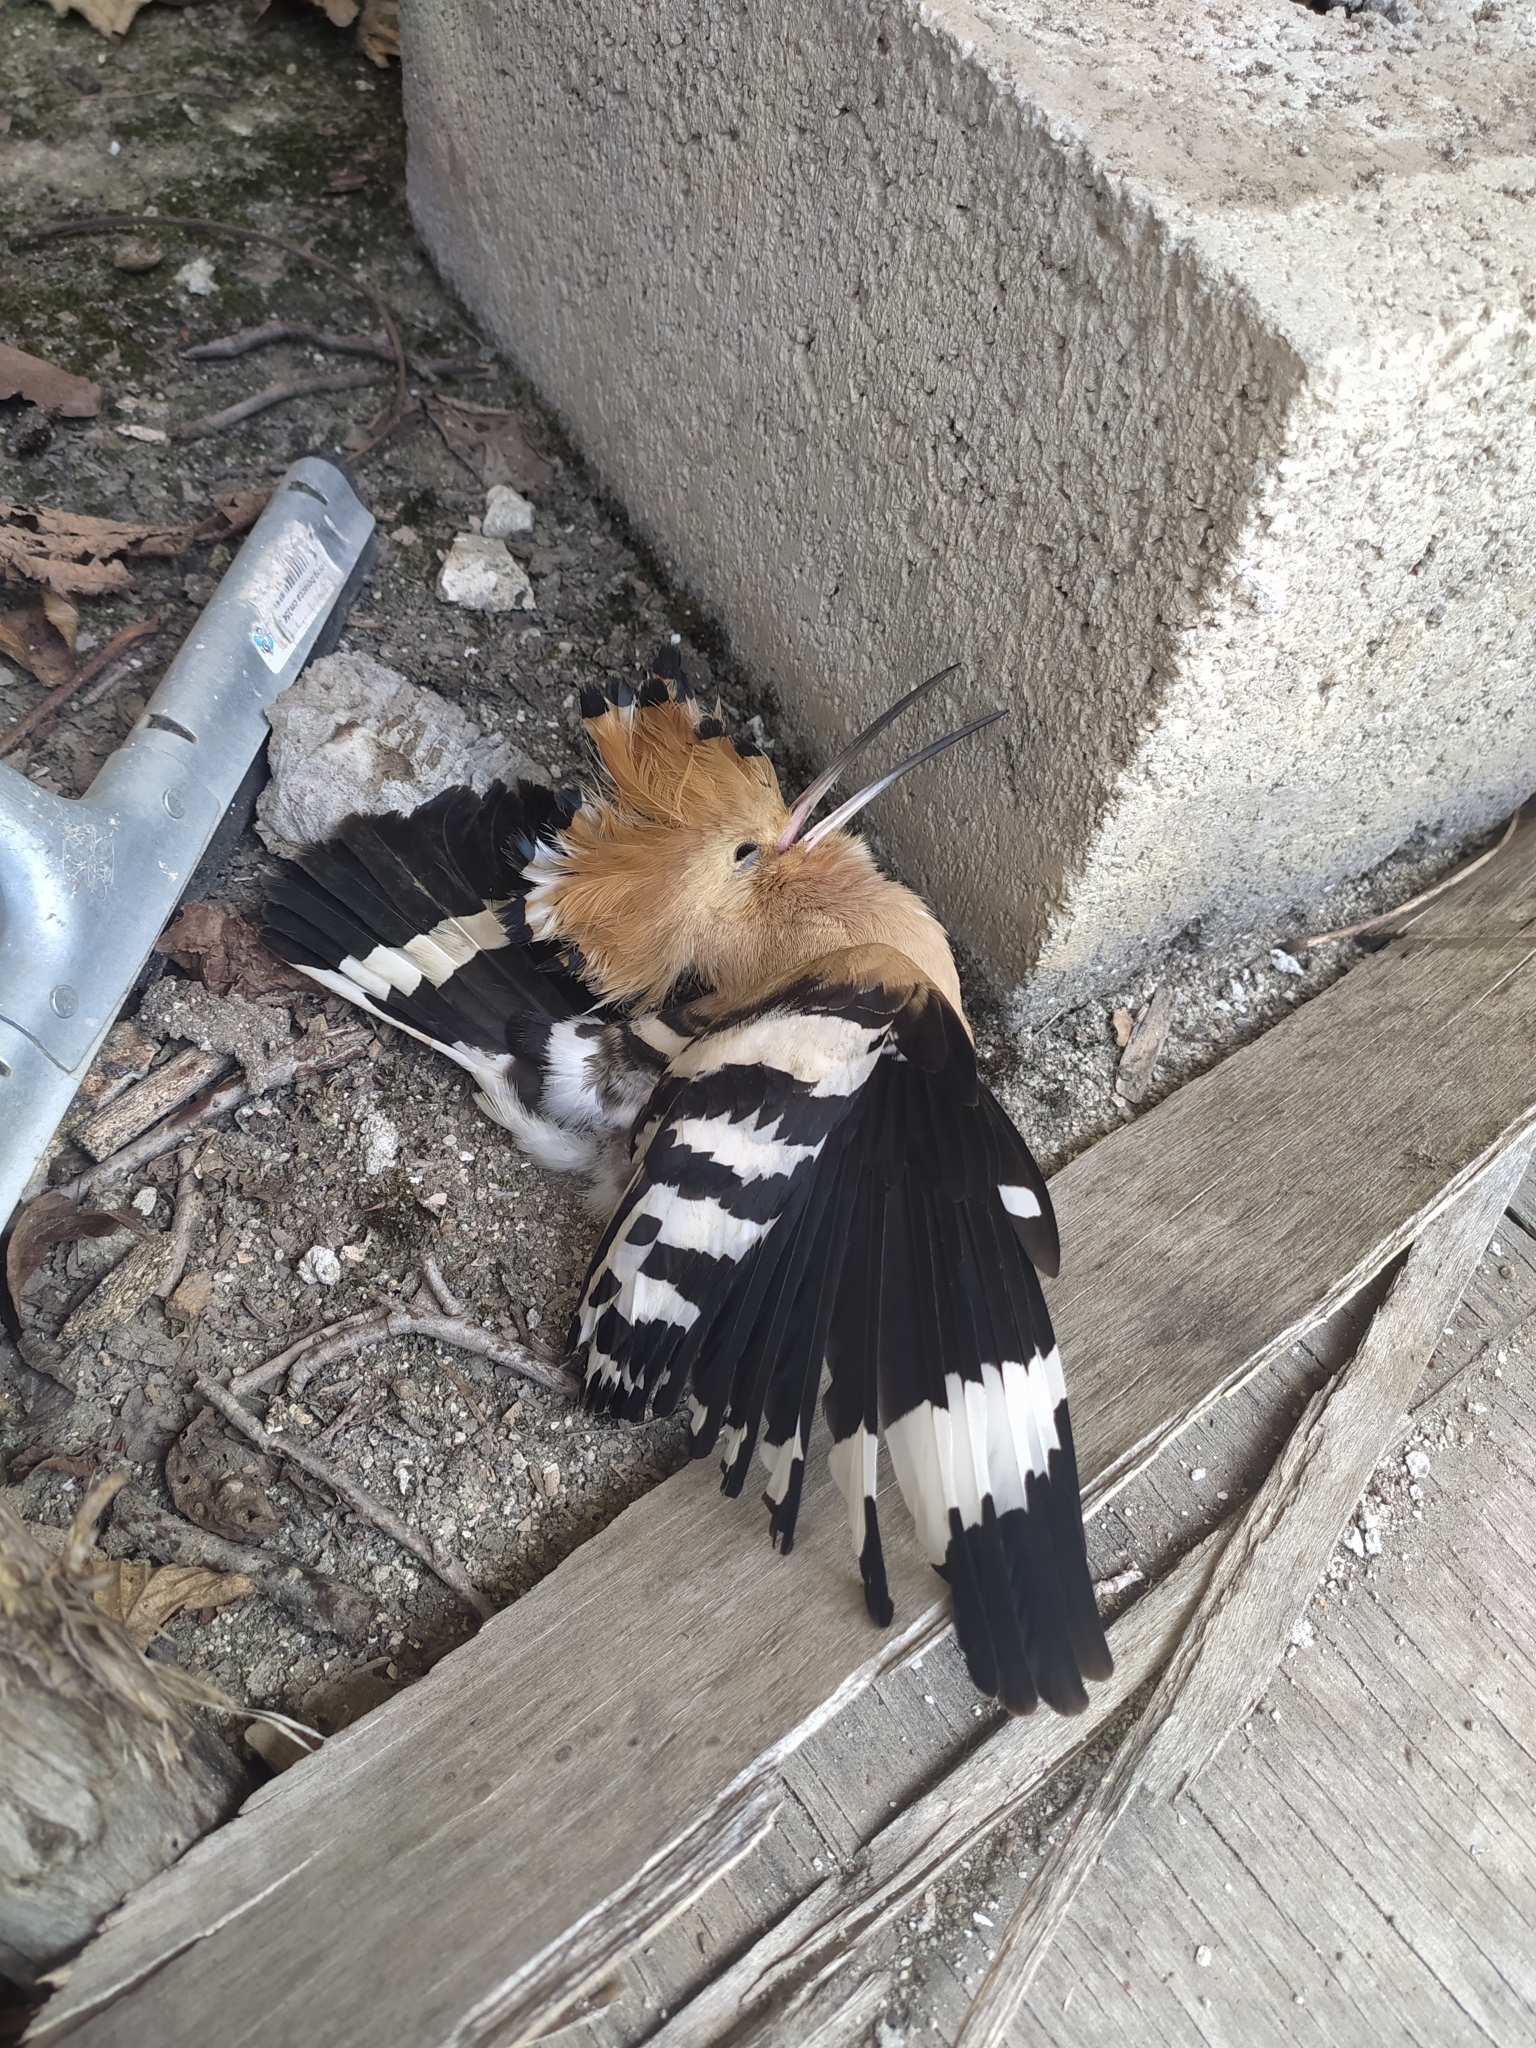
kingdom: Animalia
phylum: Chordata
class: Aves
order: Bucerotiformes
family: Upupidae
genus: Upupa
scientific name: Upupa epops
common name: Eurasian hoopoe
